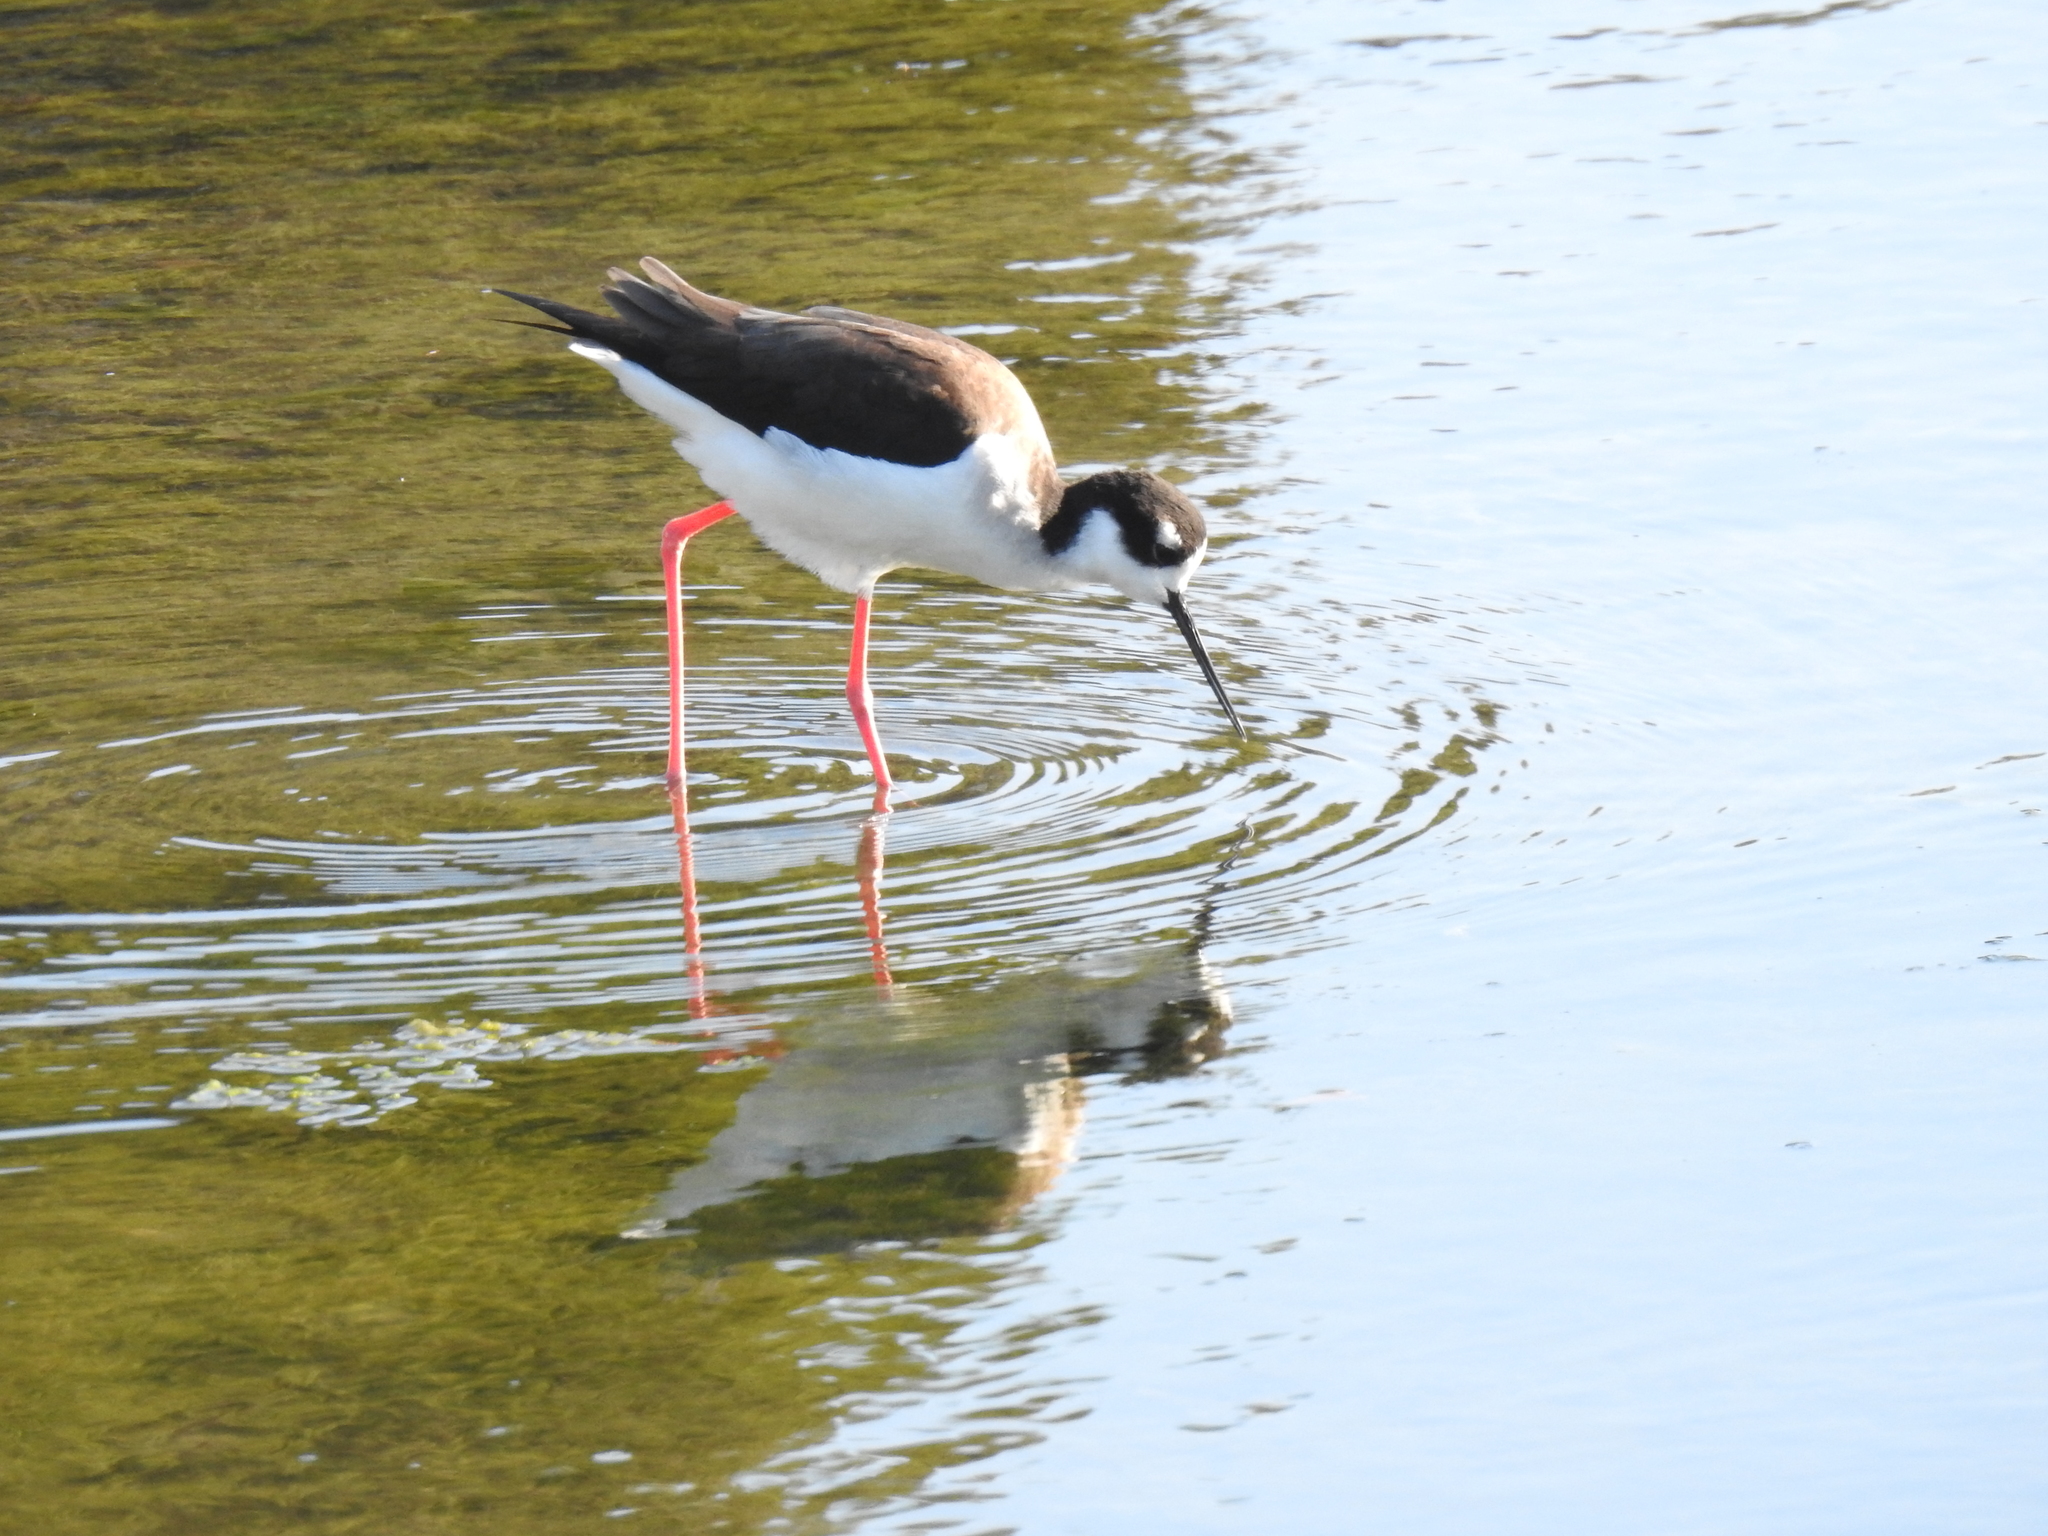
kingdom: Animalia
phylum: Chordata
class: Aves
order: Charadriiformes
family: Recurvirostridae
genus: Himantopus
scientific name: Himantopus mexicanus
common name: Black-necked stilt
